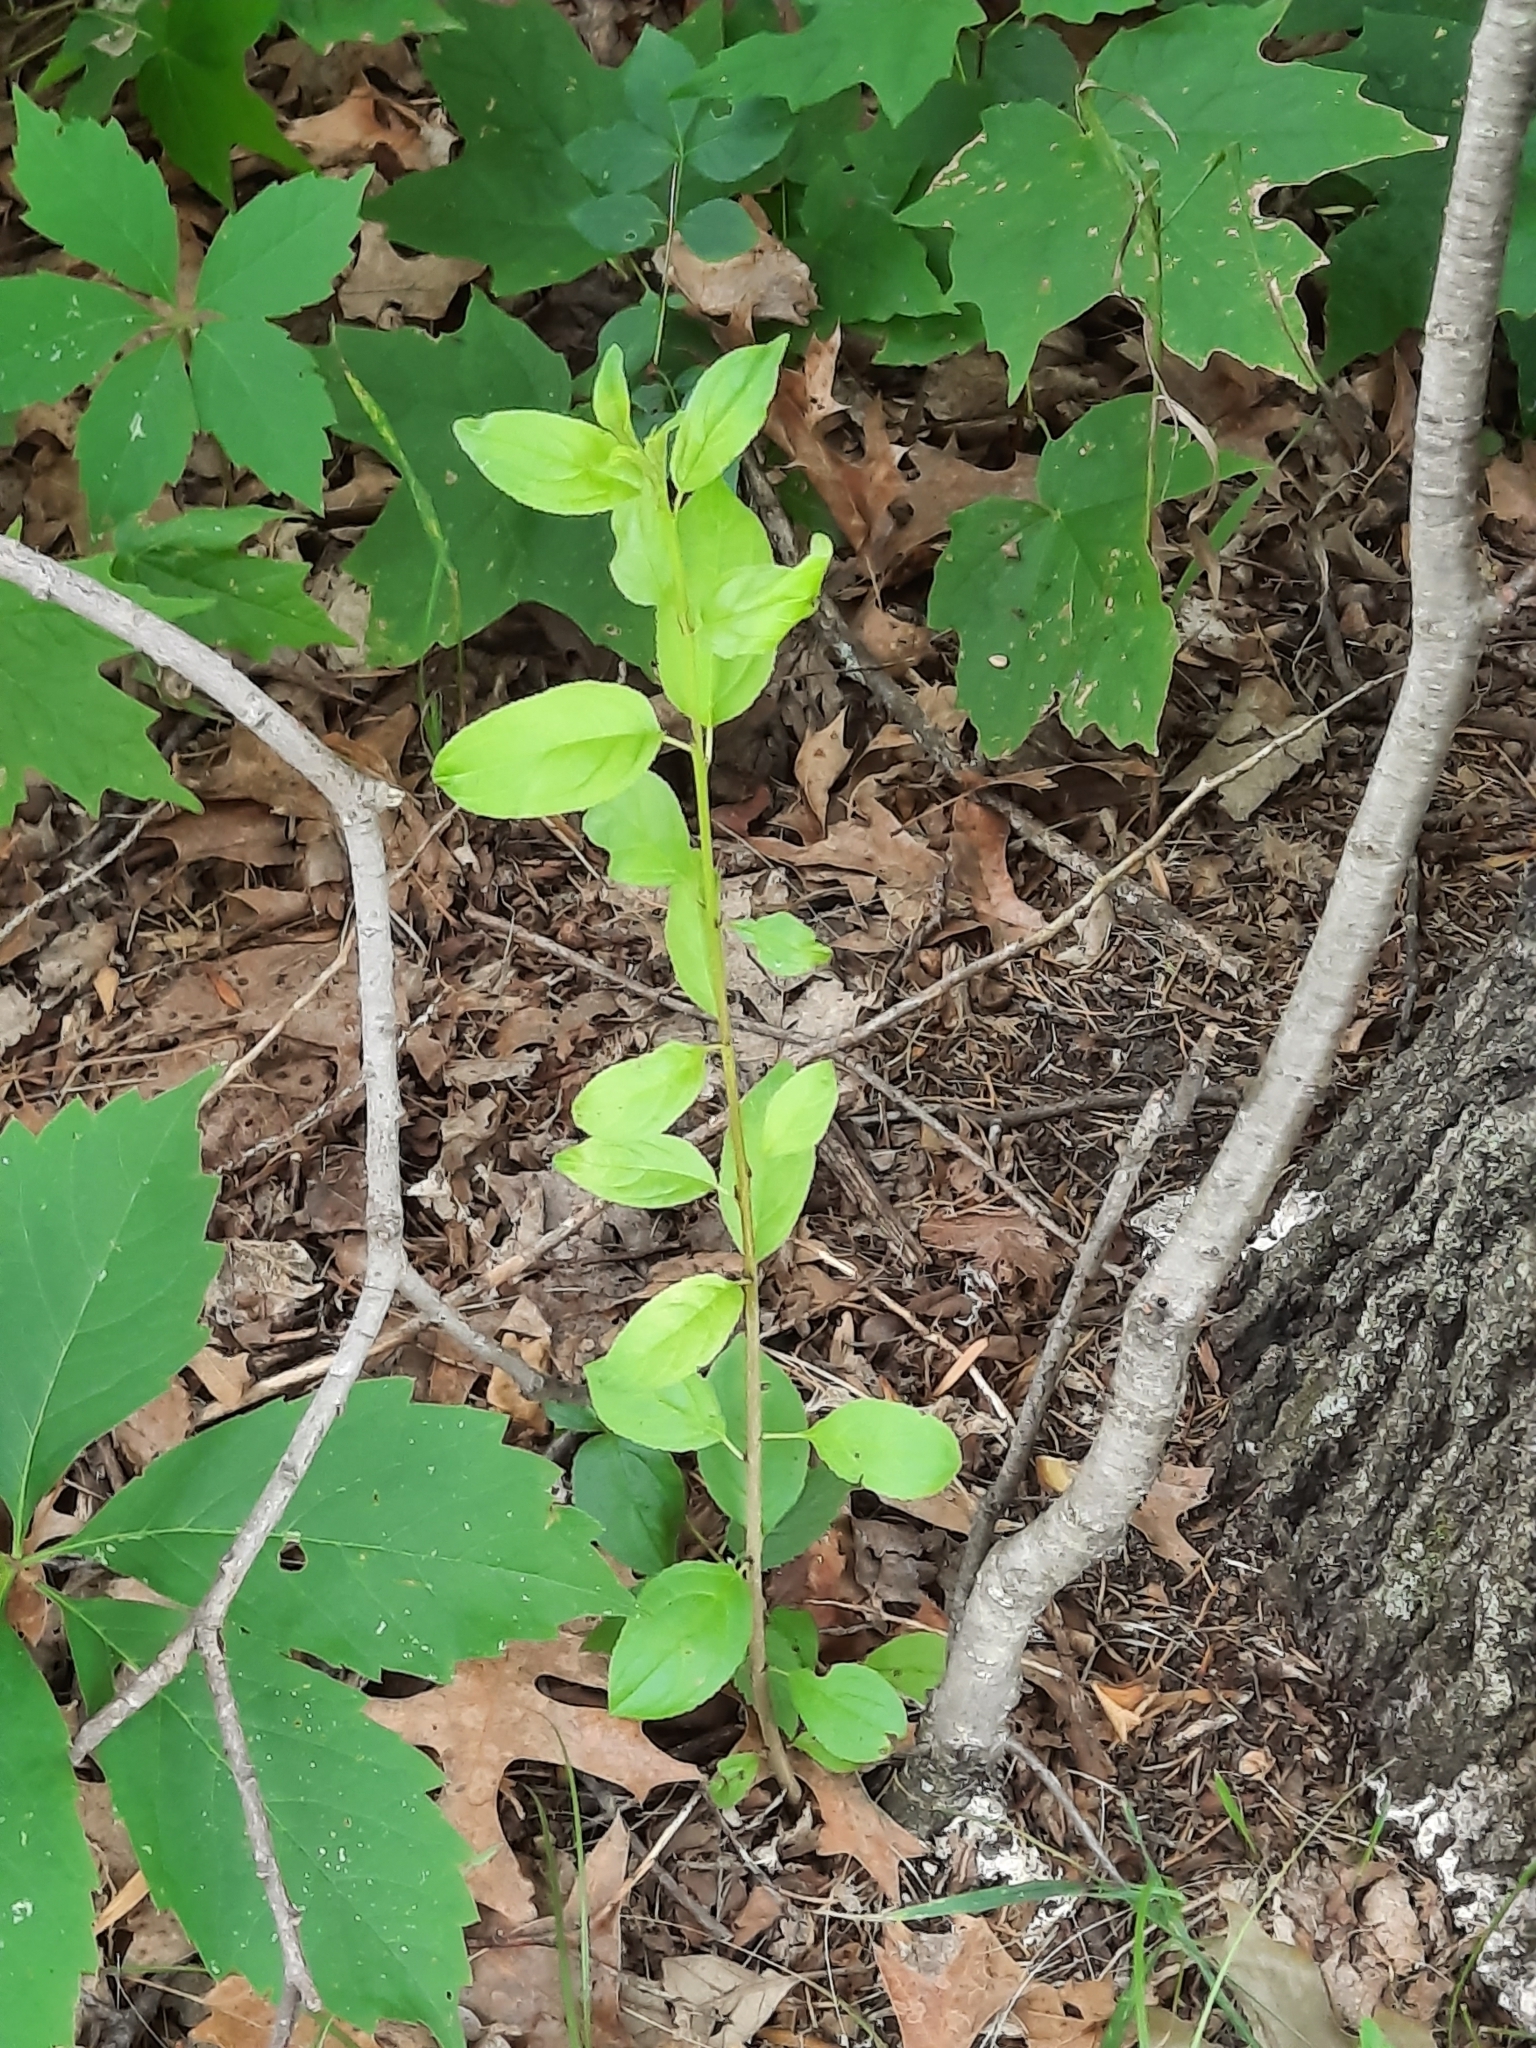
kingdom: Plantae
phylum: Tracheophyta
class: Magnoliopsida
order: Rosales
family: Rhamnaceae
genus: Rhamnus
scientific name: Rhamnus cathartica
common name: Common buckthorn
